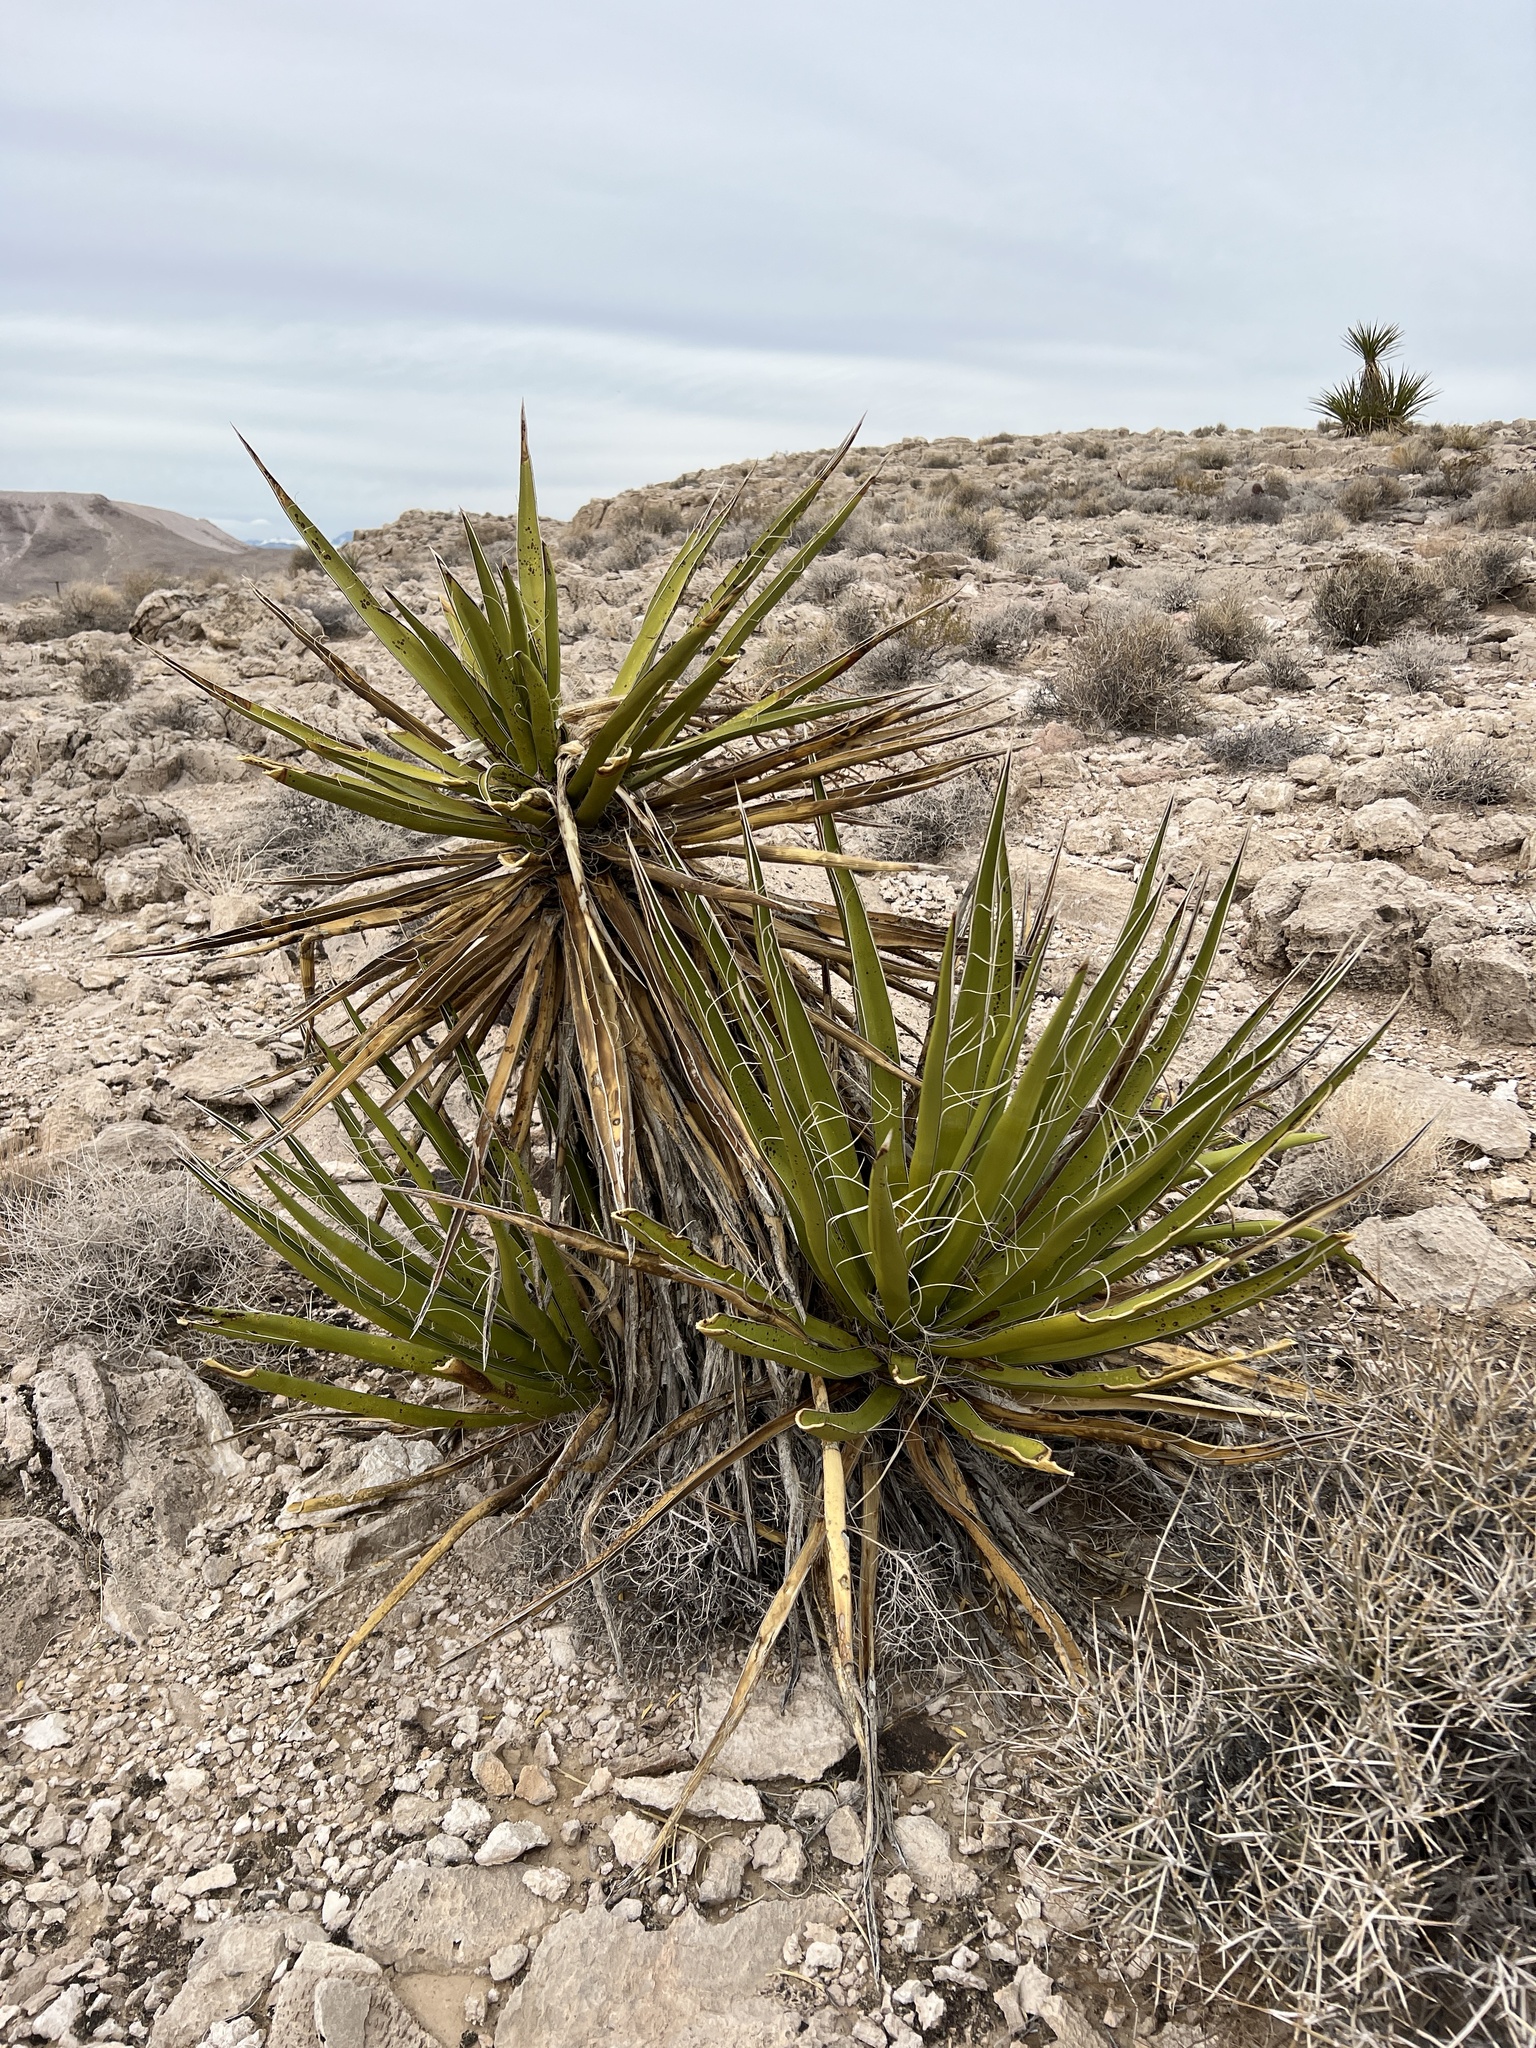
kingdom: Plantae
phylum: Tracheophyta
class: Liliopsida
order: Asparagales
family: Asparagaceae
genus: Yucca
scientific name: Yucca schidigera
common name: Mojave yucca
